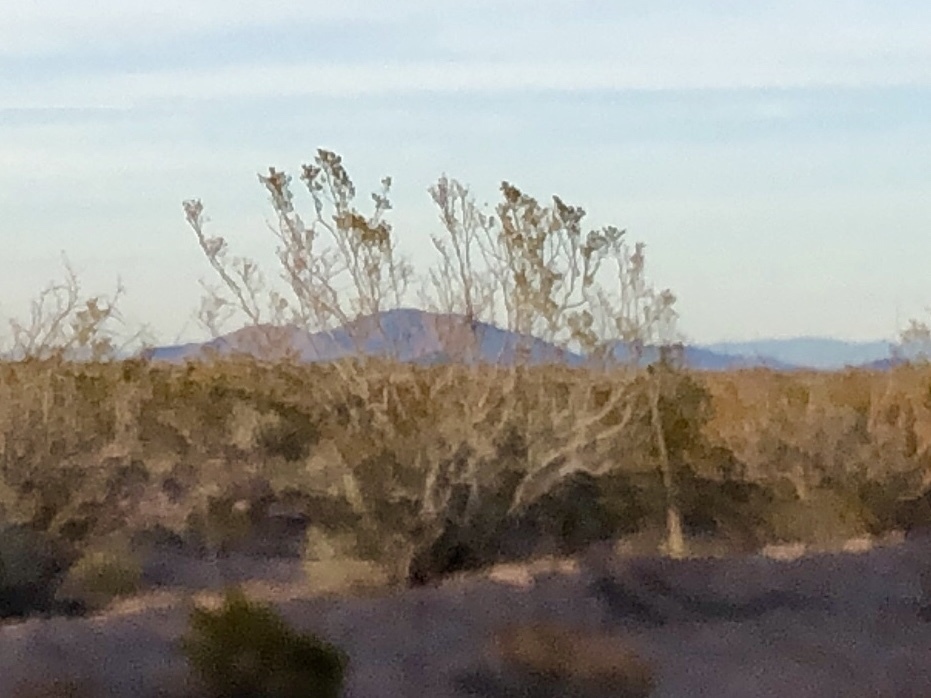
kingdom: Plantae
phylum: Tracheophyta
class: Magnoliopsida
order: Zygophyllales
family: Zygophyllaceae
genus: Larrea
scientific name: Larrea tridentata
